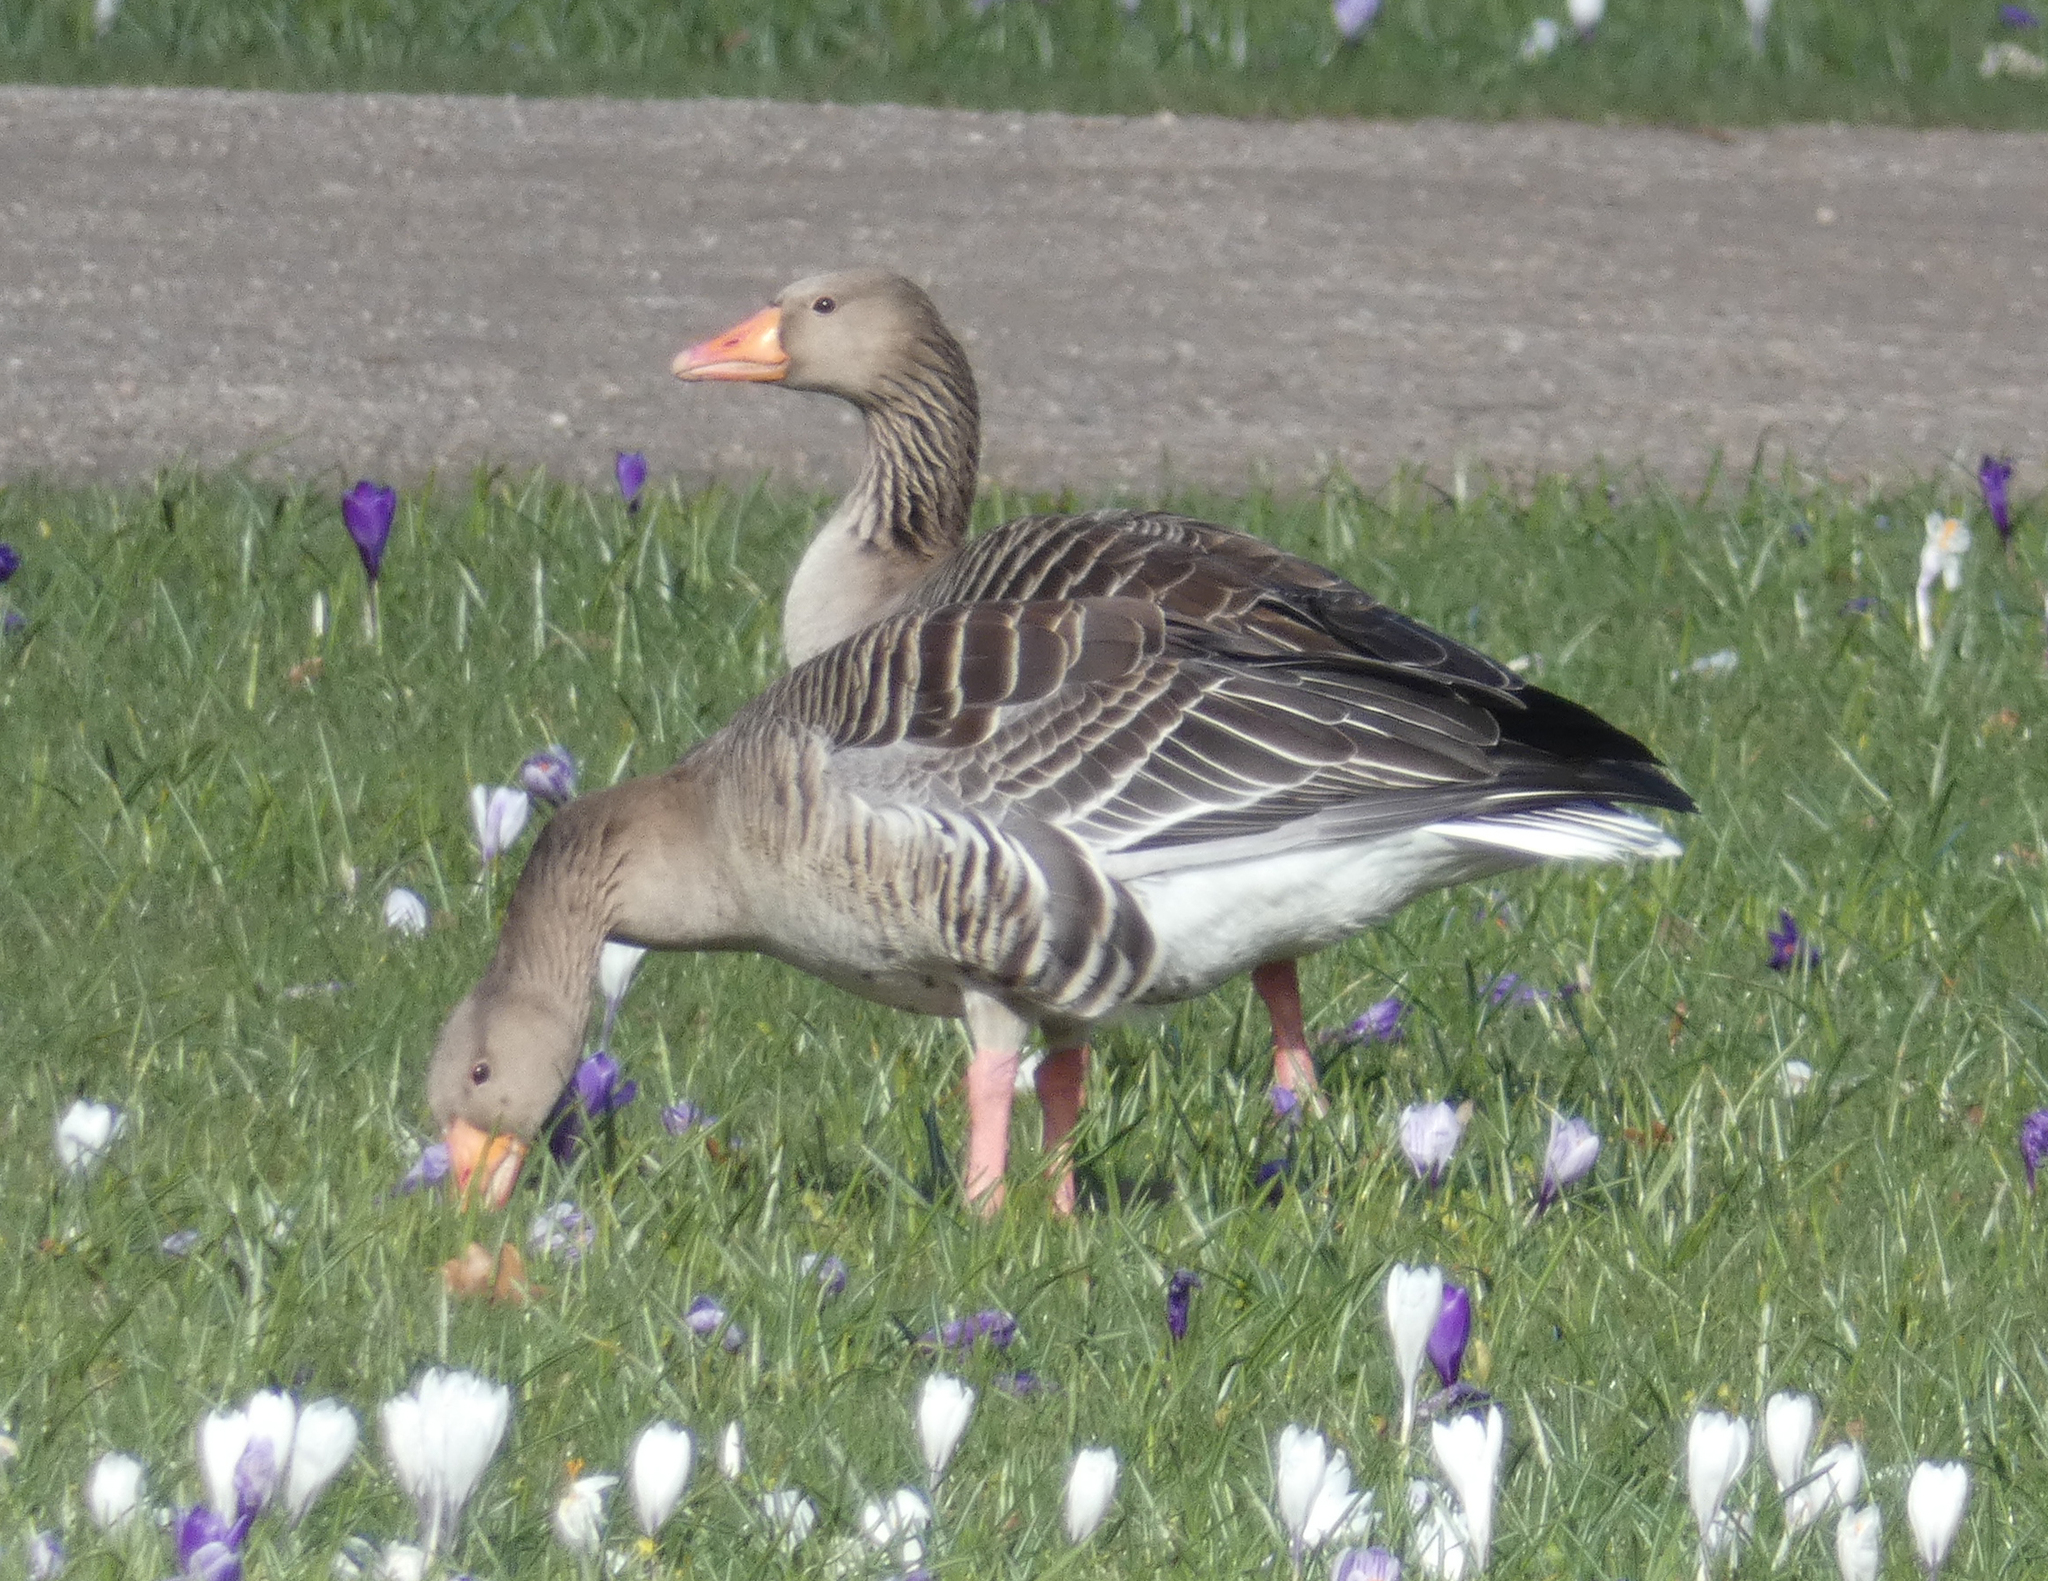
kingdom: Animalia
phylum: Chordata
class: Aves
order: Anseriformes
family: Anatidae
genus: Anser
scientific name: Anser anser
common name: Greylag goose
